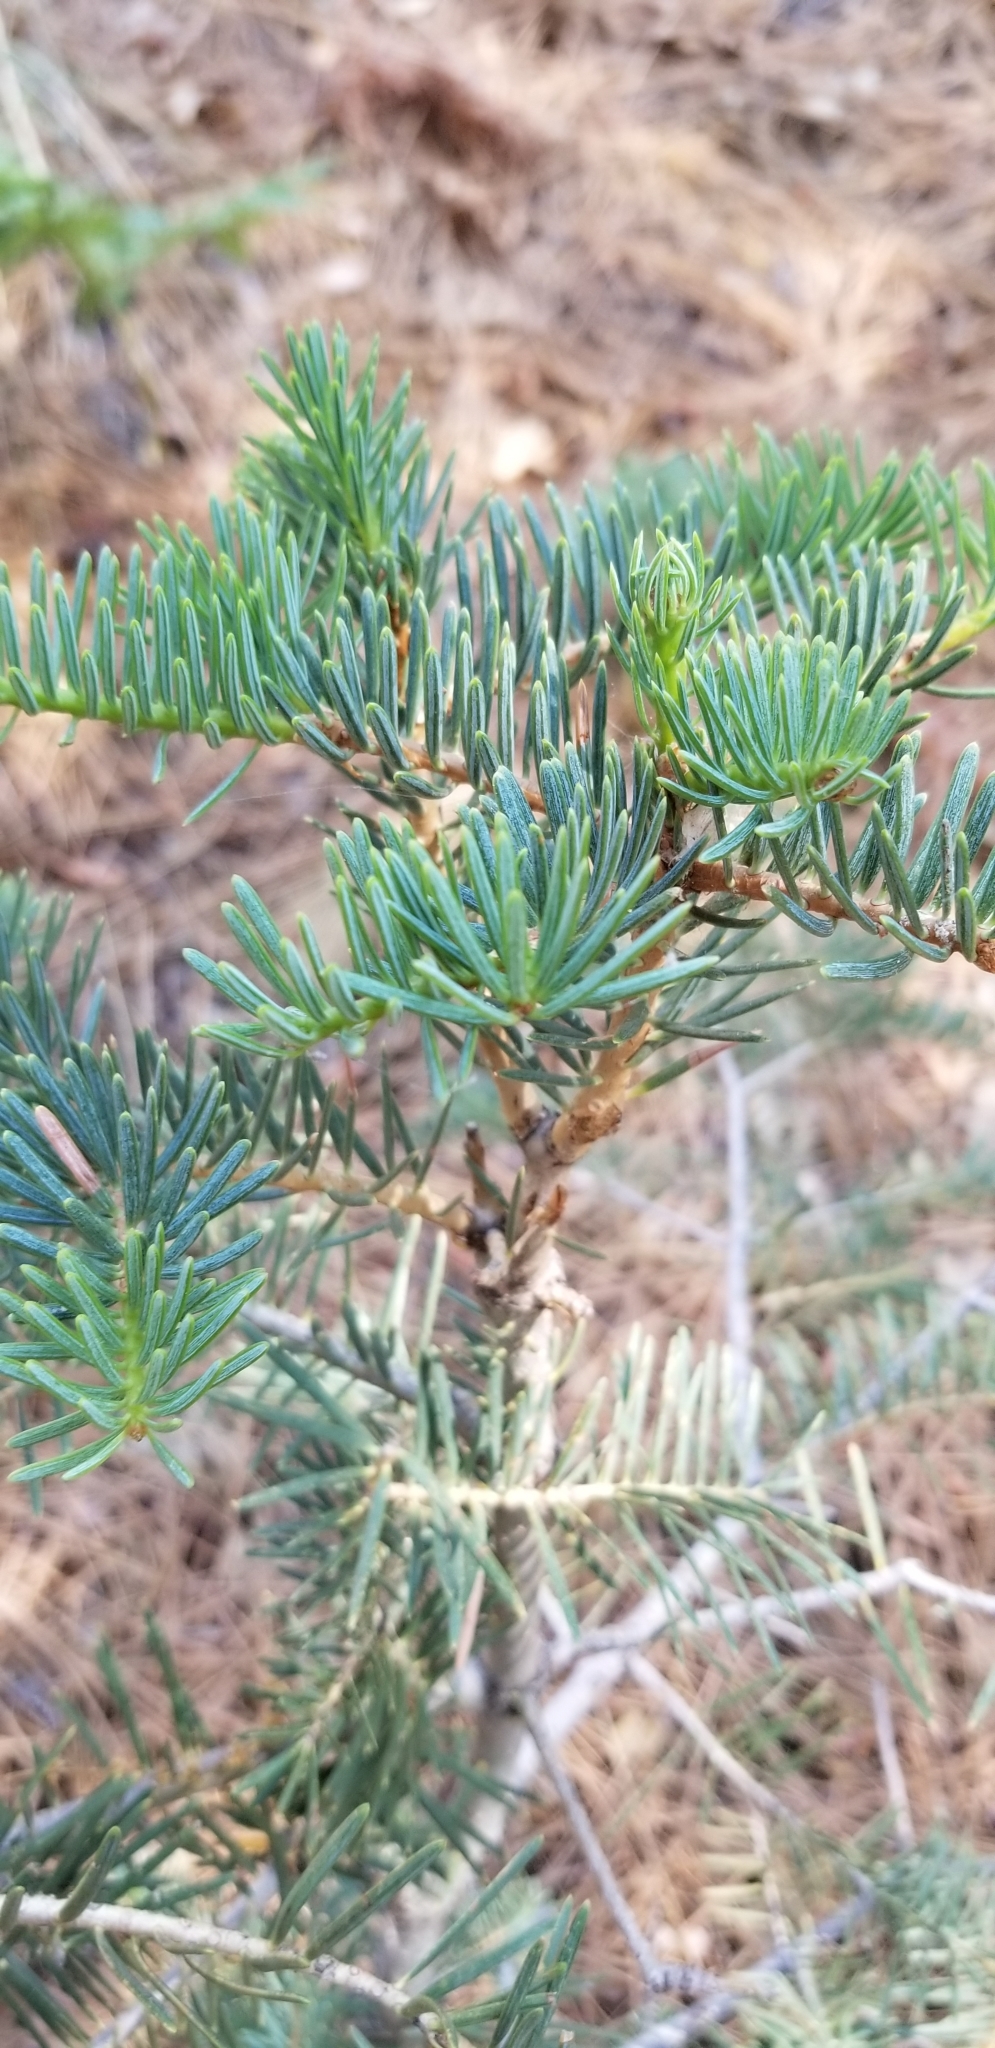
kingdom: Plantae
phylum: Tracheophyta
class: Pinopsida
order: Pinales
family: Pinaceae
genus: Abies
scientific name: Abies concolor
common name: Colorado fir
